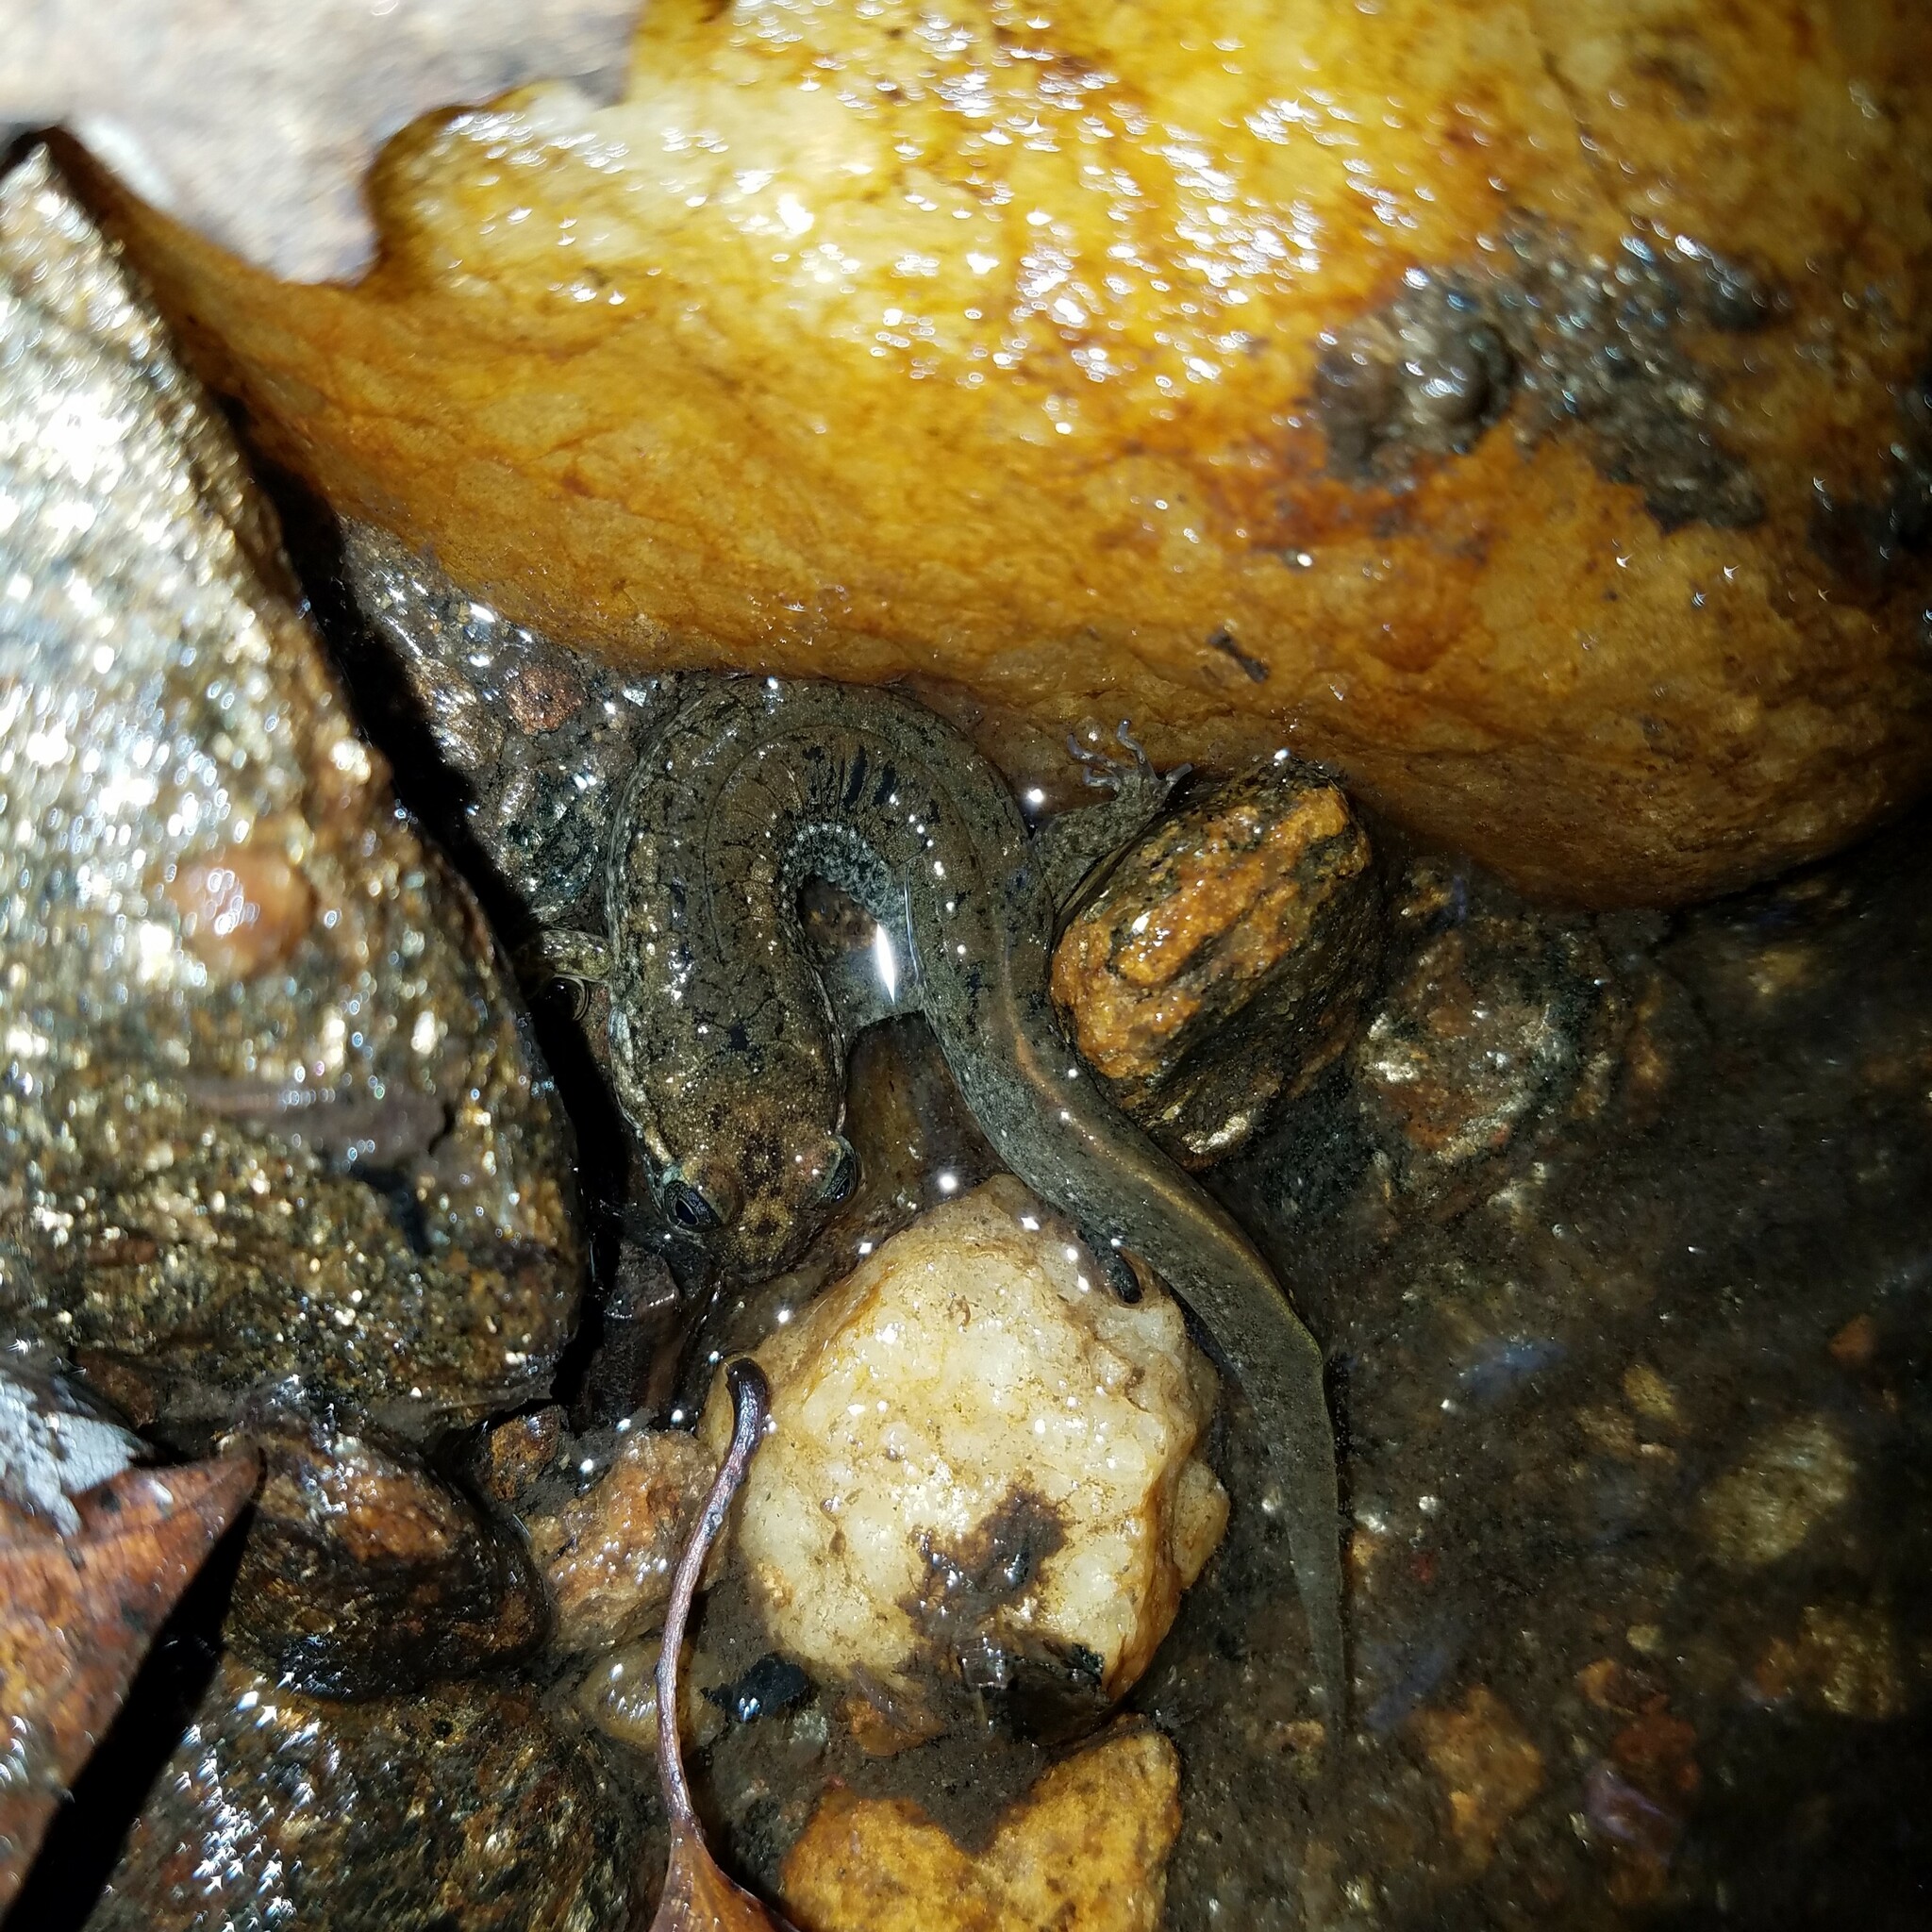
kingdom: Animalia
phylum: Chordata
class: Amphibia
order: Caudata
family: Plethodontidae
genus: Desmognathus
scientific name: Desmognathus
